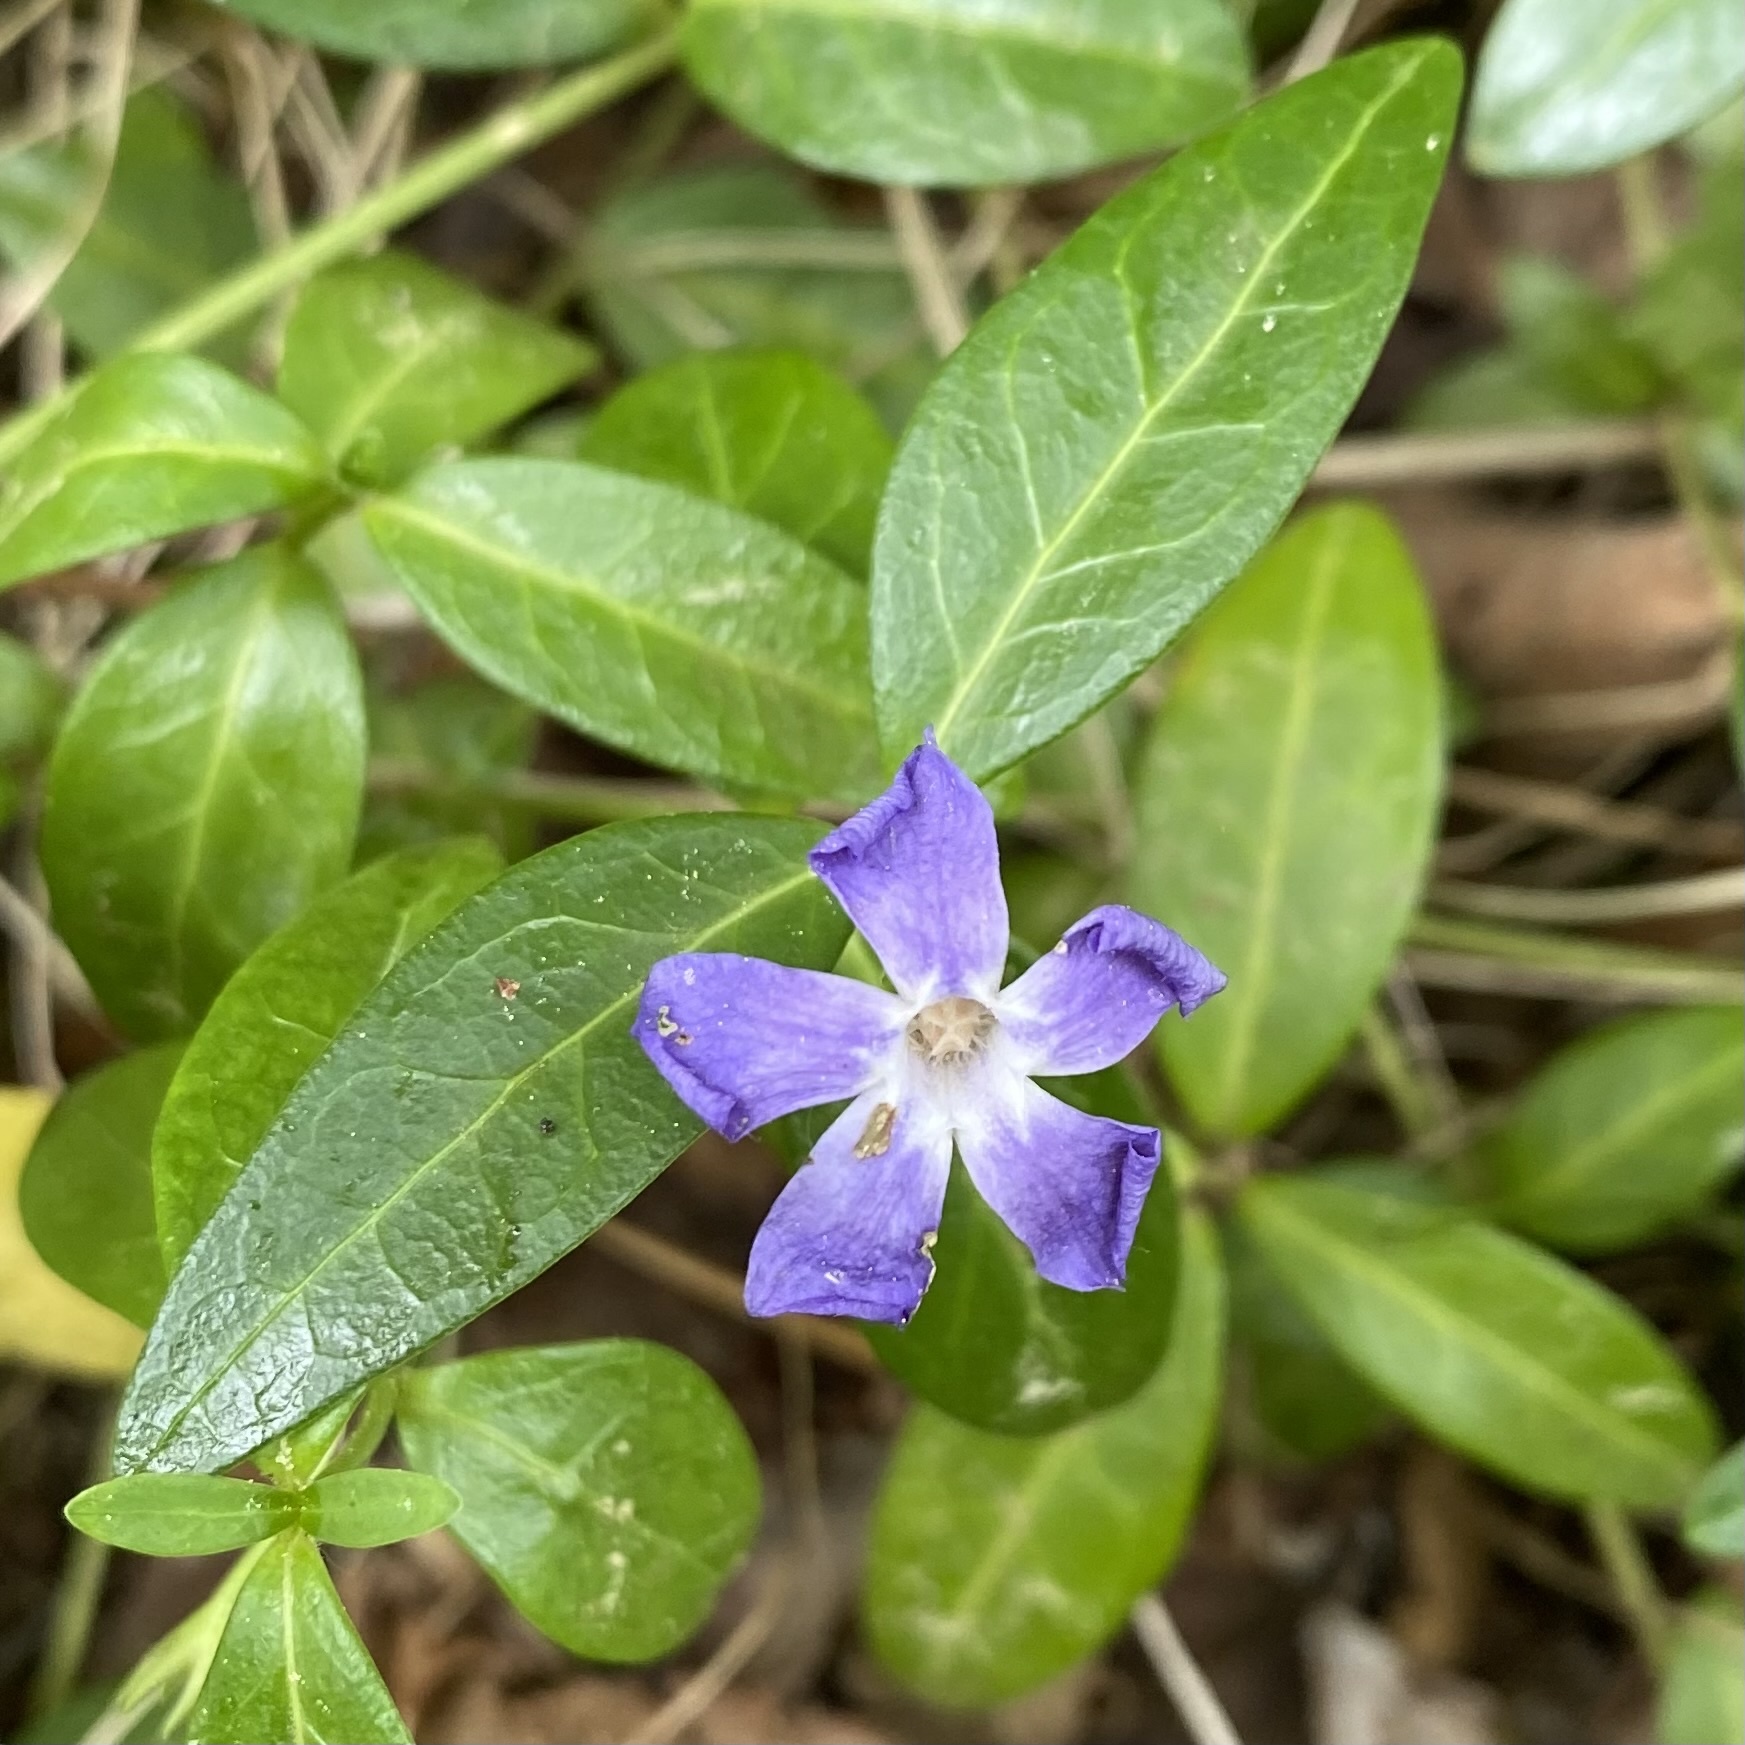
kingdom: Plantae
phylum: Tracheophyta
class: Magnoliopsida
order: Gentianales
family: Apocynaceae
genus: Vinca
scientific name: Vinca minor
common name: Lesser periwinkle
